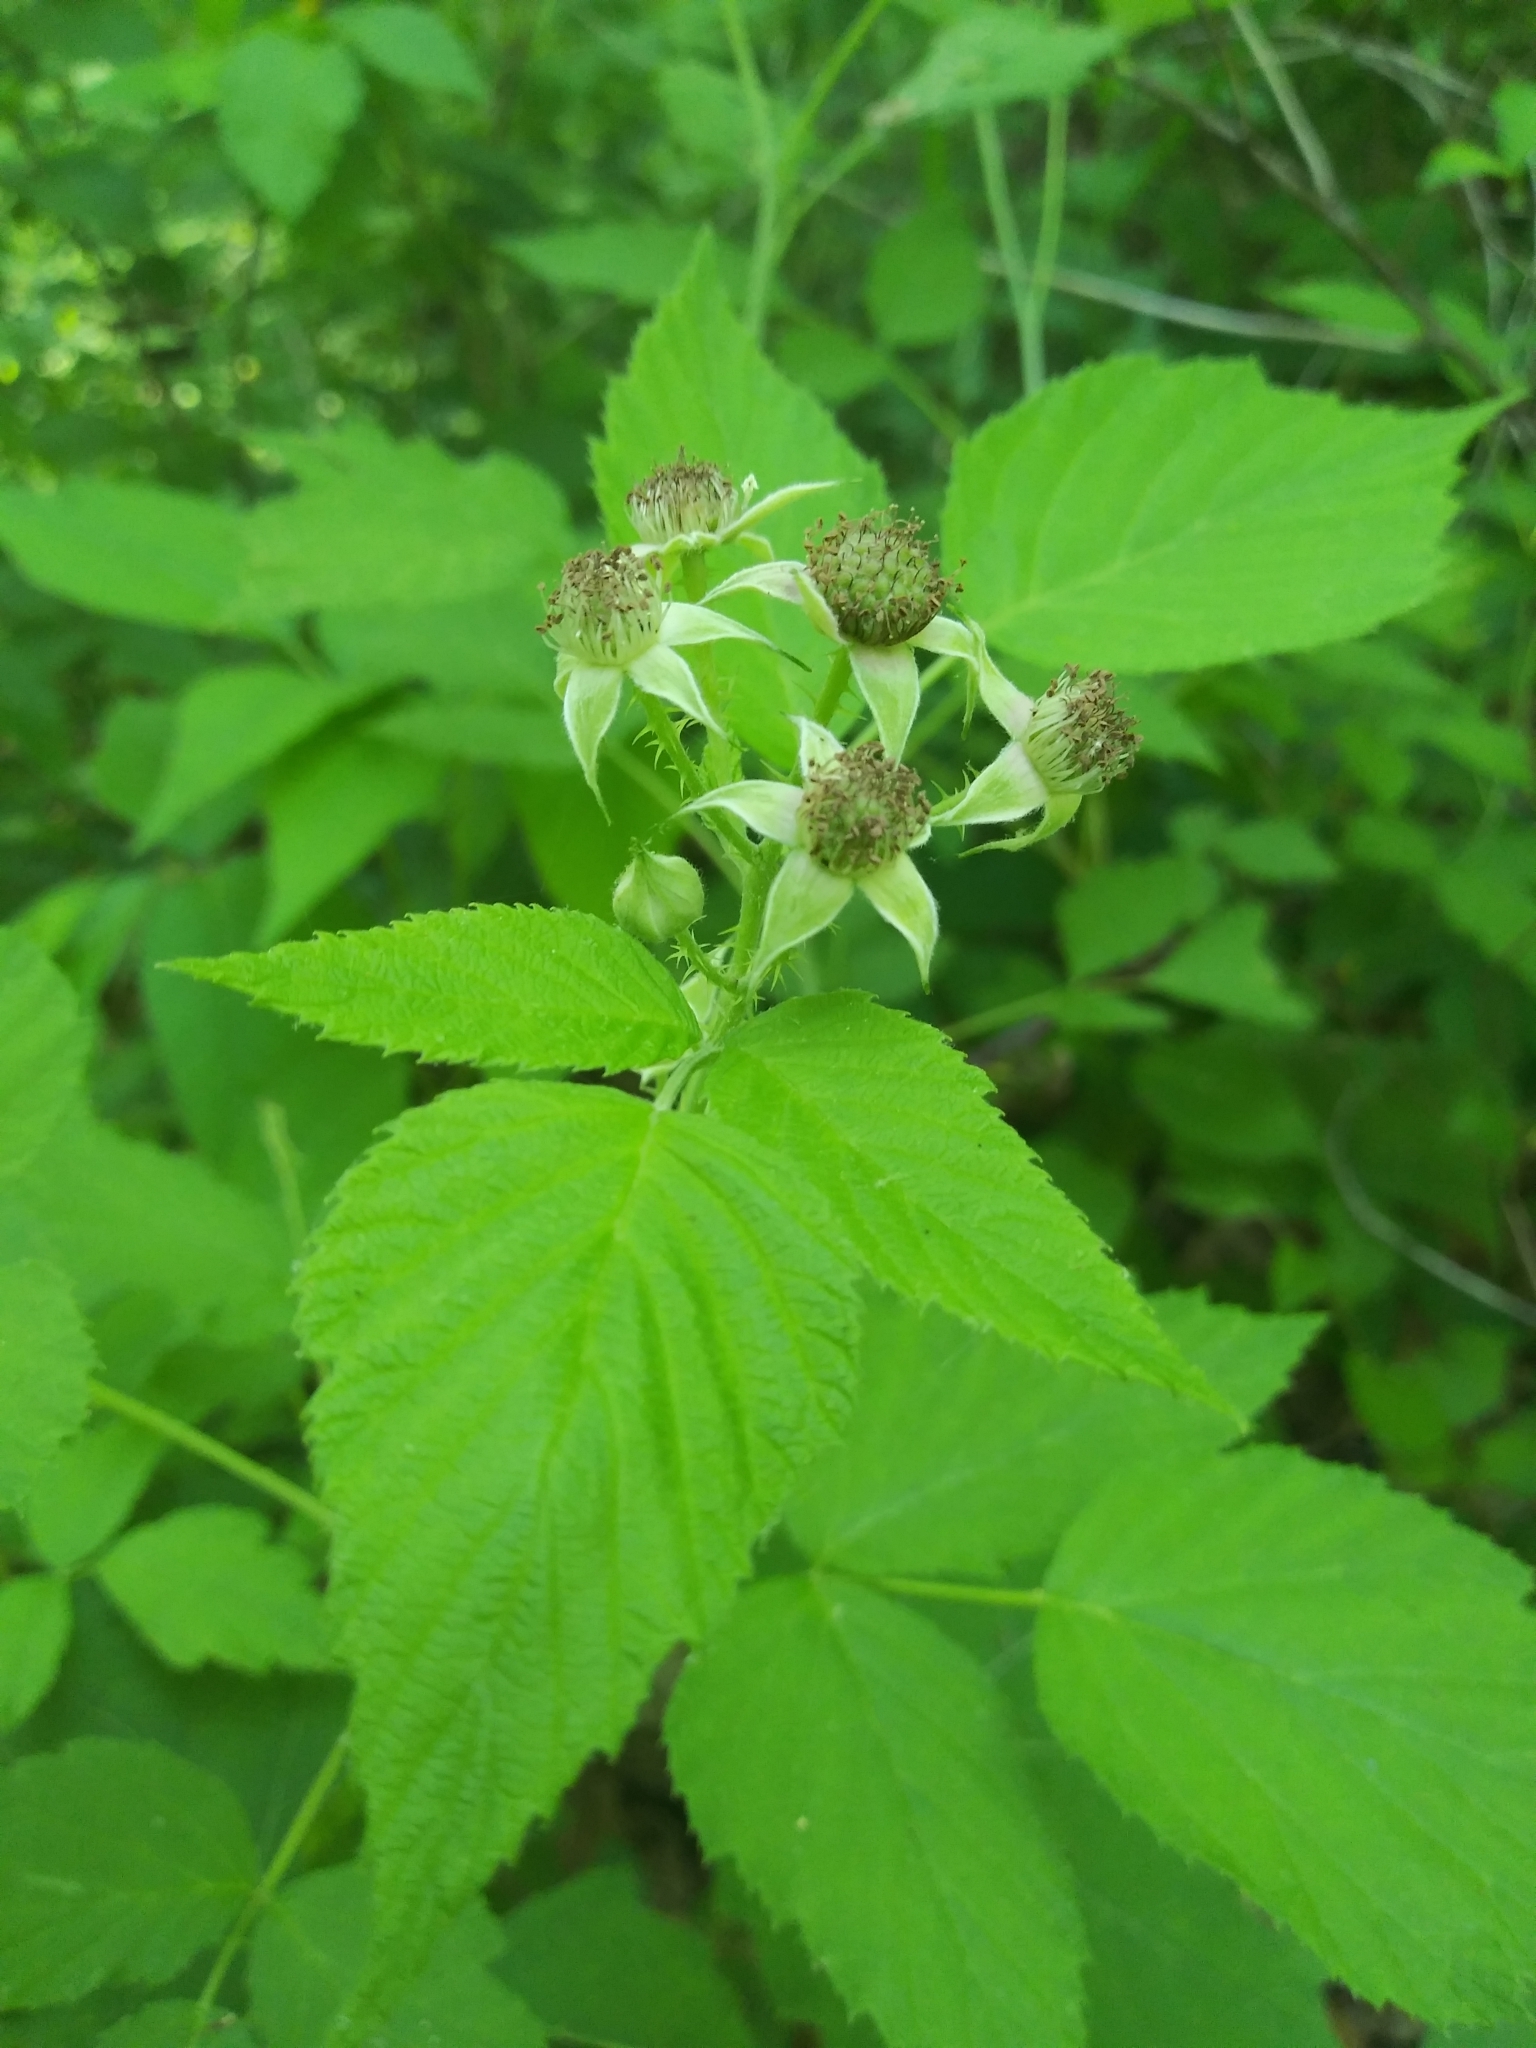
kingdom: Plantae
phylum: Tracheophyta
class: Magnoliopsida
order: Rosales
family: Rosaceae
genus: Rubus
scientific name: Rubus occidentalis
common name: Black raspberry
